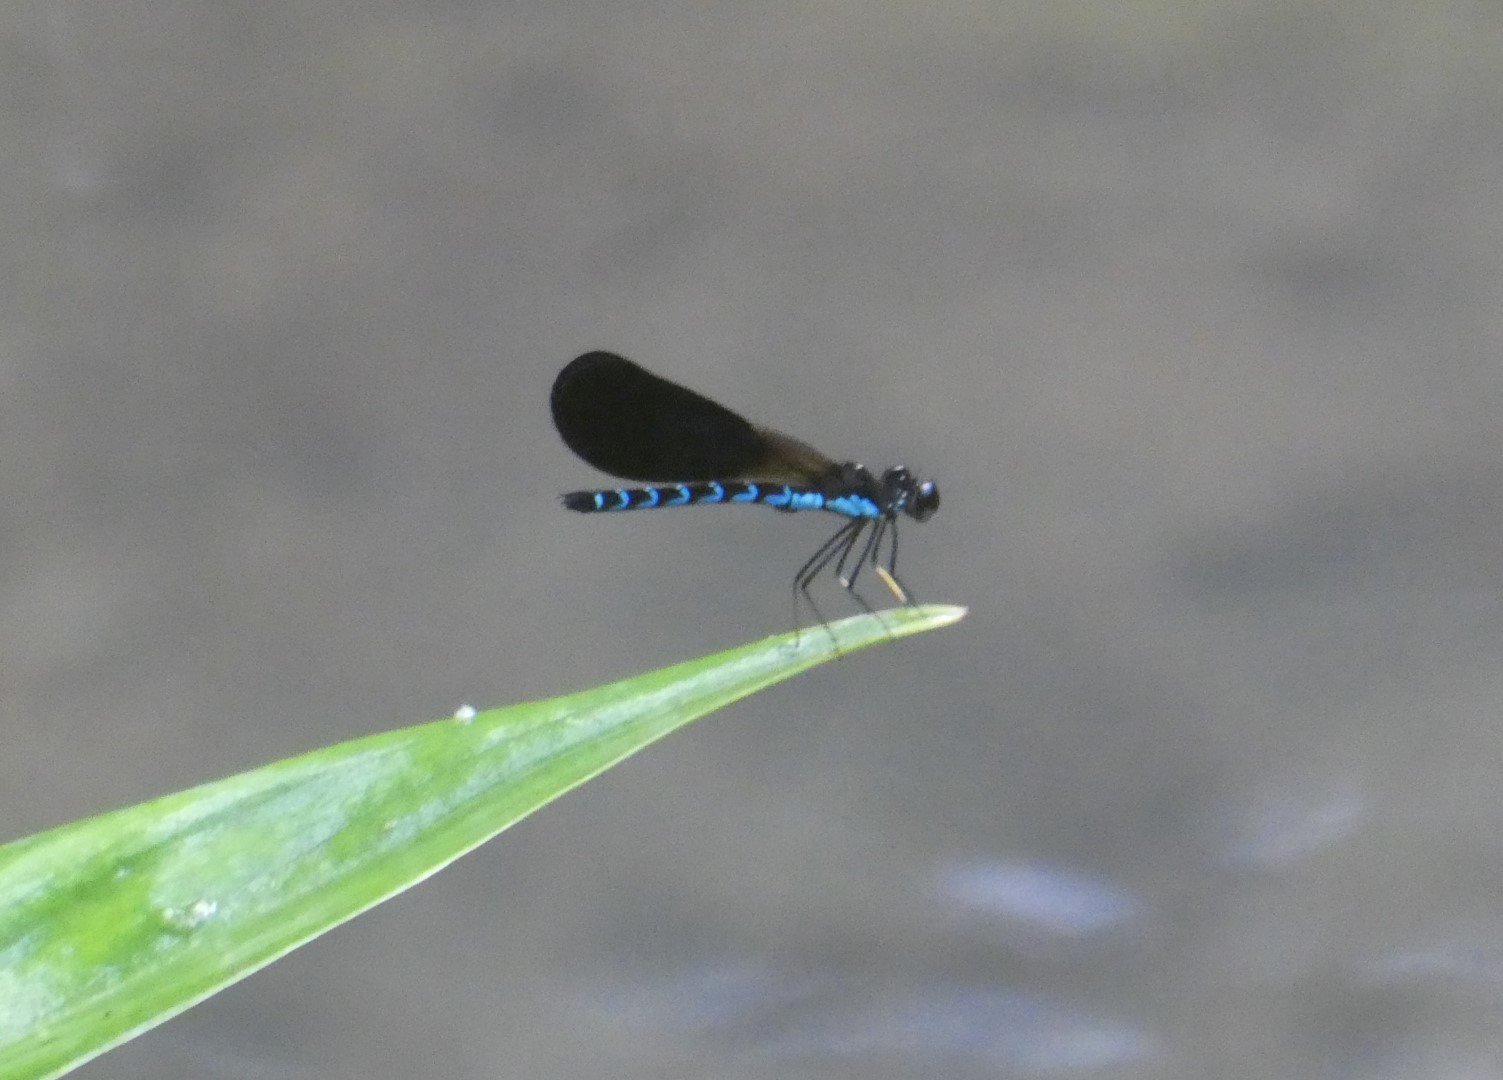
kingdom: Animalia
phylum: Arthropoda
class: Insecta
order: Odonata
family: Chlorocyphidae
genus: Rhinocypha
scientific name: Rhinocypha tincta
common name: Papuan jewel
